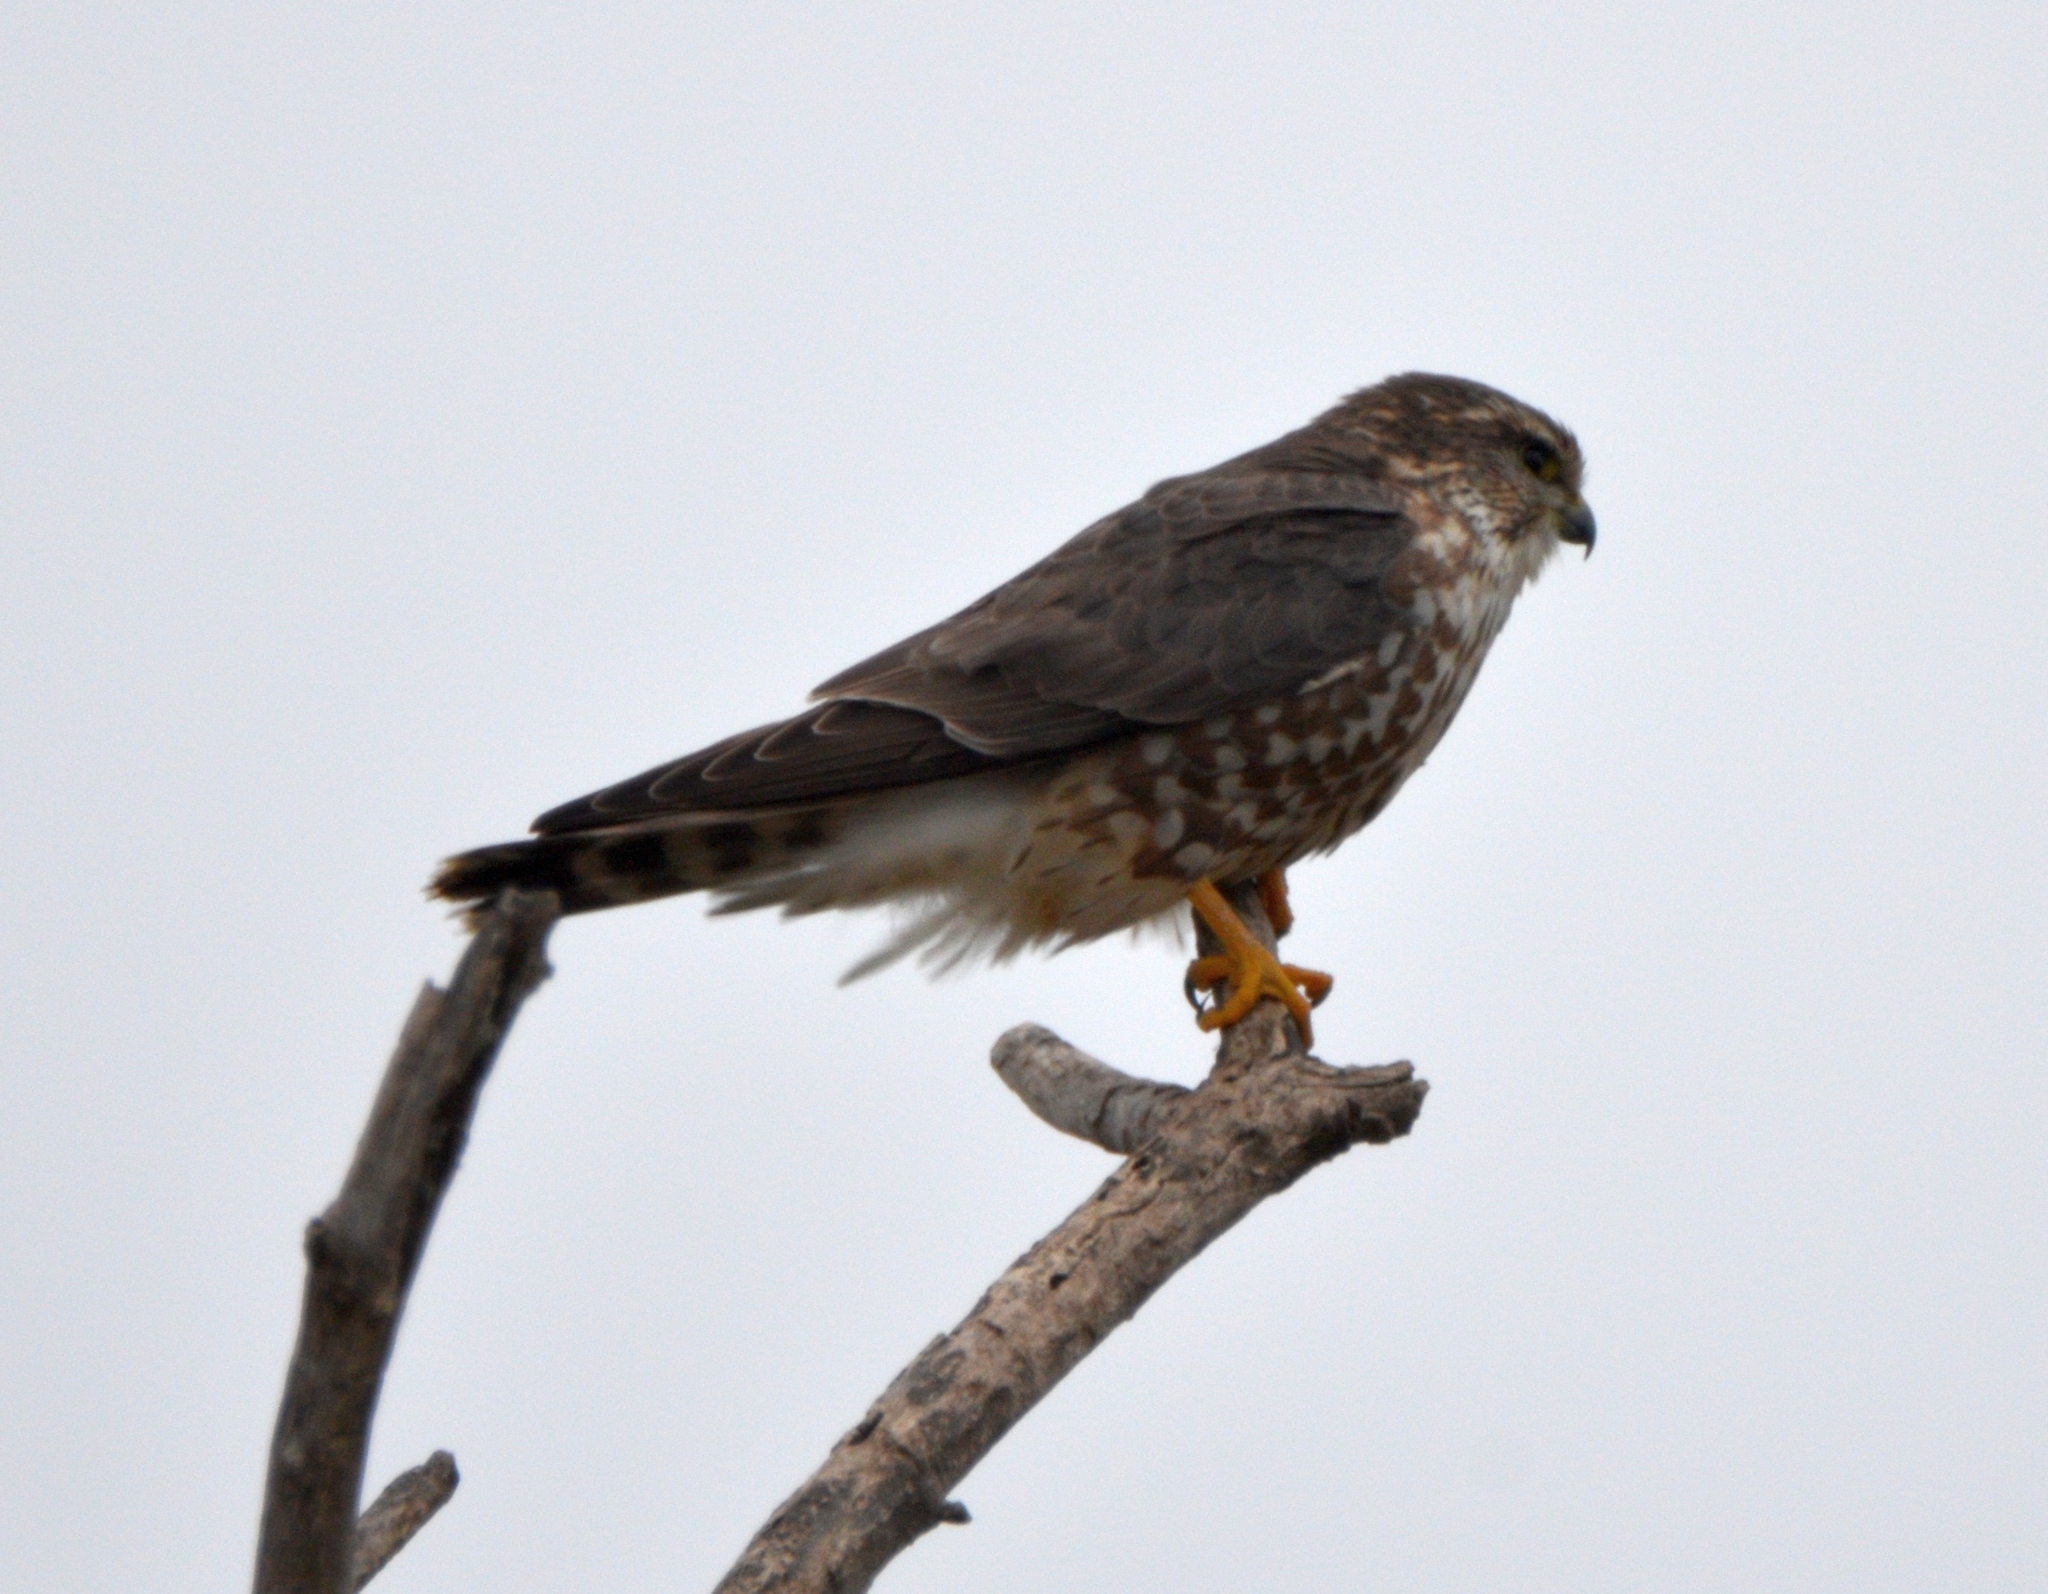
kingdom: Animalia
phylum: Chordata
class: Aves
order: Falconiformes
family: Falconidae
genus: Falco
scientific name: Falco columbarius
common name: Merlin
